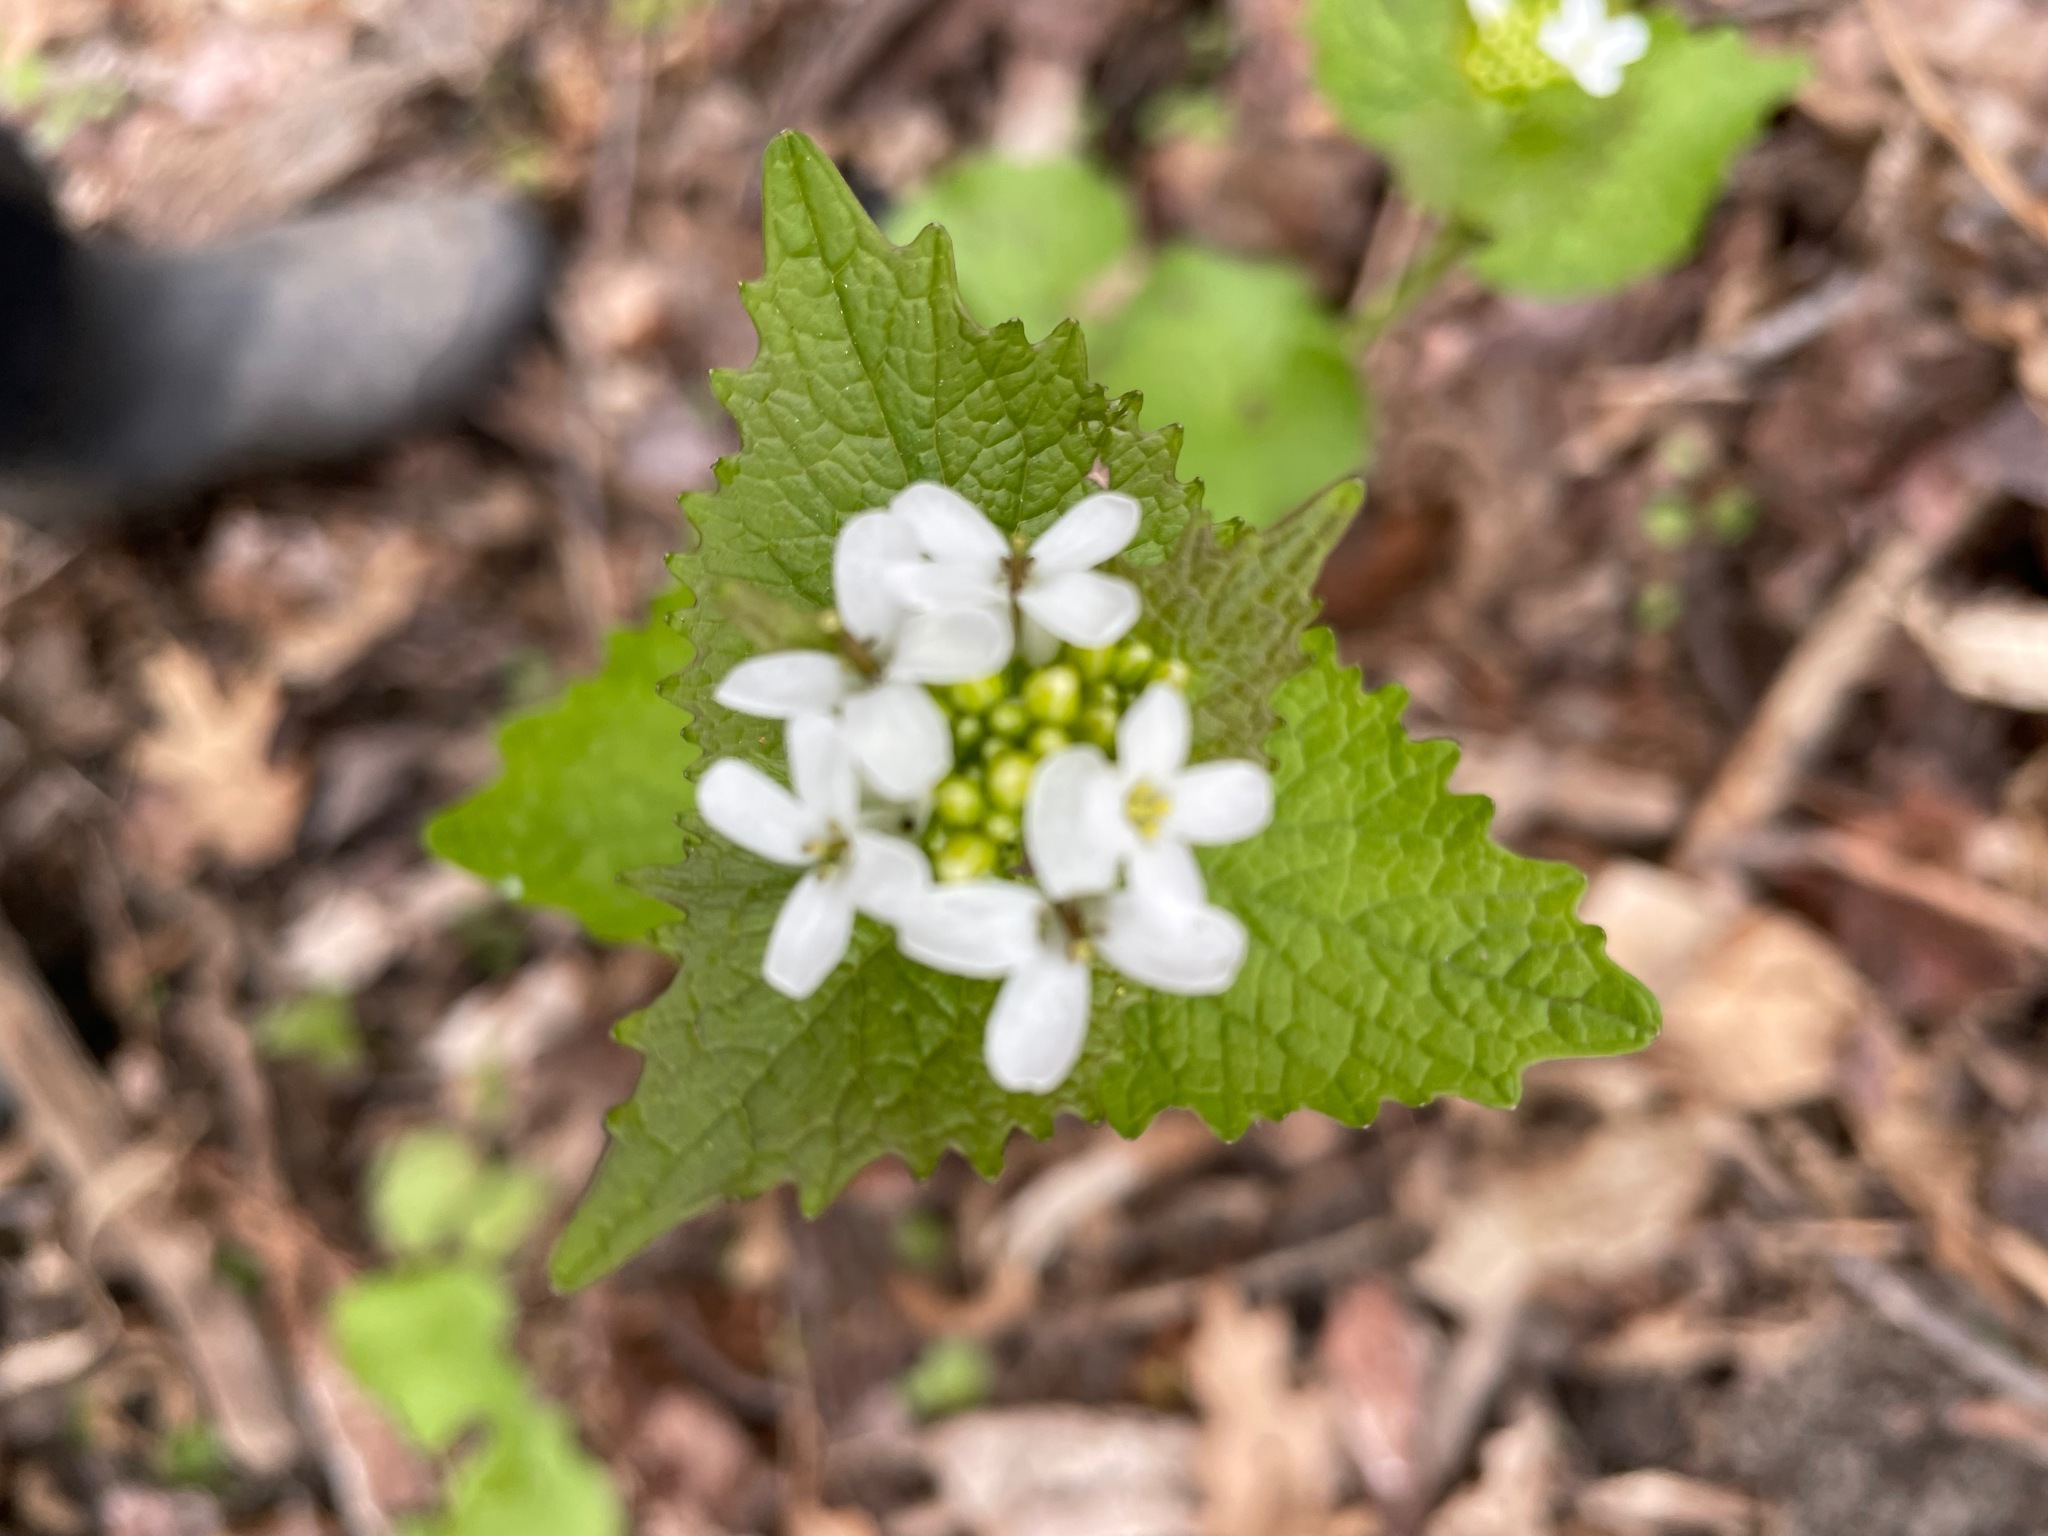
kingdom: Plantae
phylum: Tracheophyta
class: Magnoliopsida
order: Brassicales
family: Brassicaceae
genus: Alliaria
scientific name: Alliaria petiolata
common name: Garlic mustard
